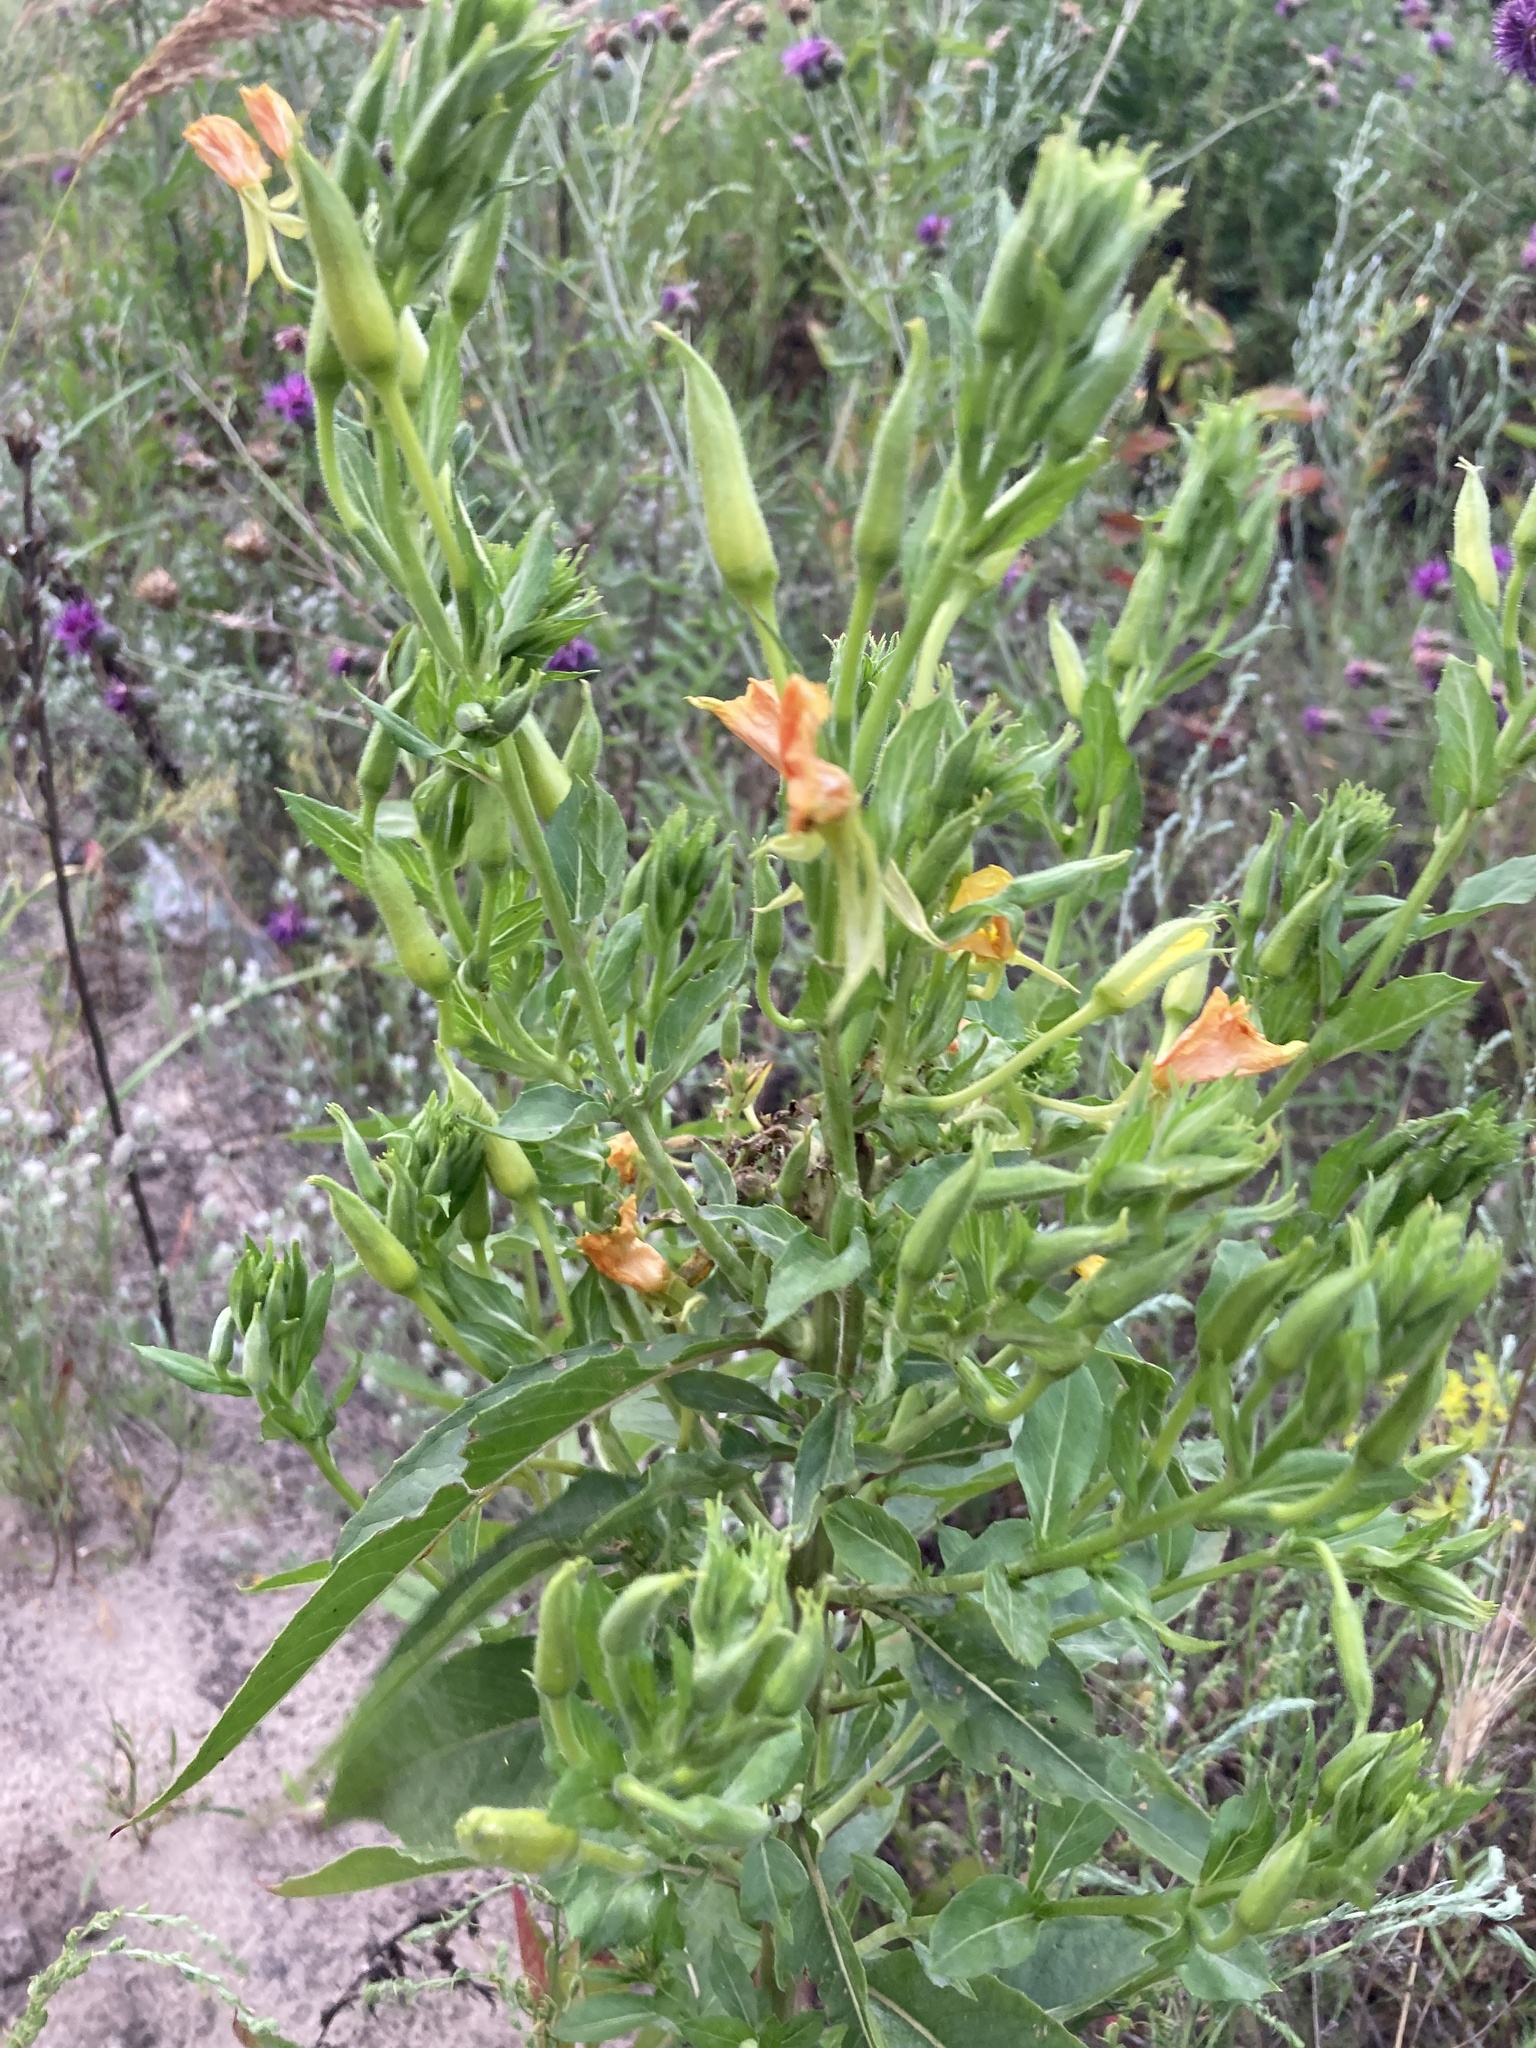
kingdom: Plantae
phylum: Tracheophyta
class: Magnoliopsida
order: Myrtales
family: Onagraceae
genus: Oenothera
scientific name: Oenothera biennis
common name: Common evening-primrose
